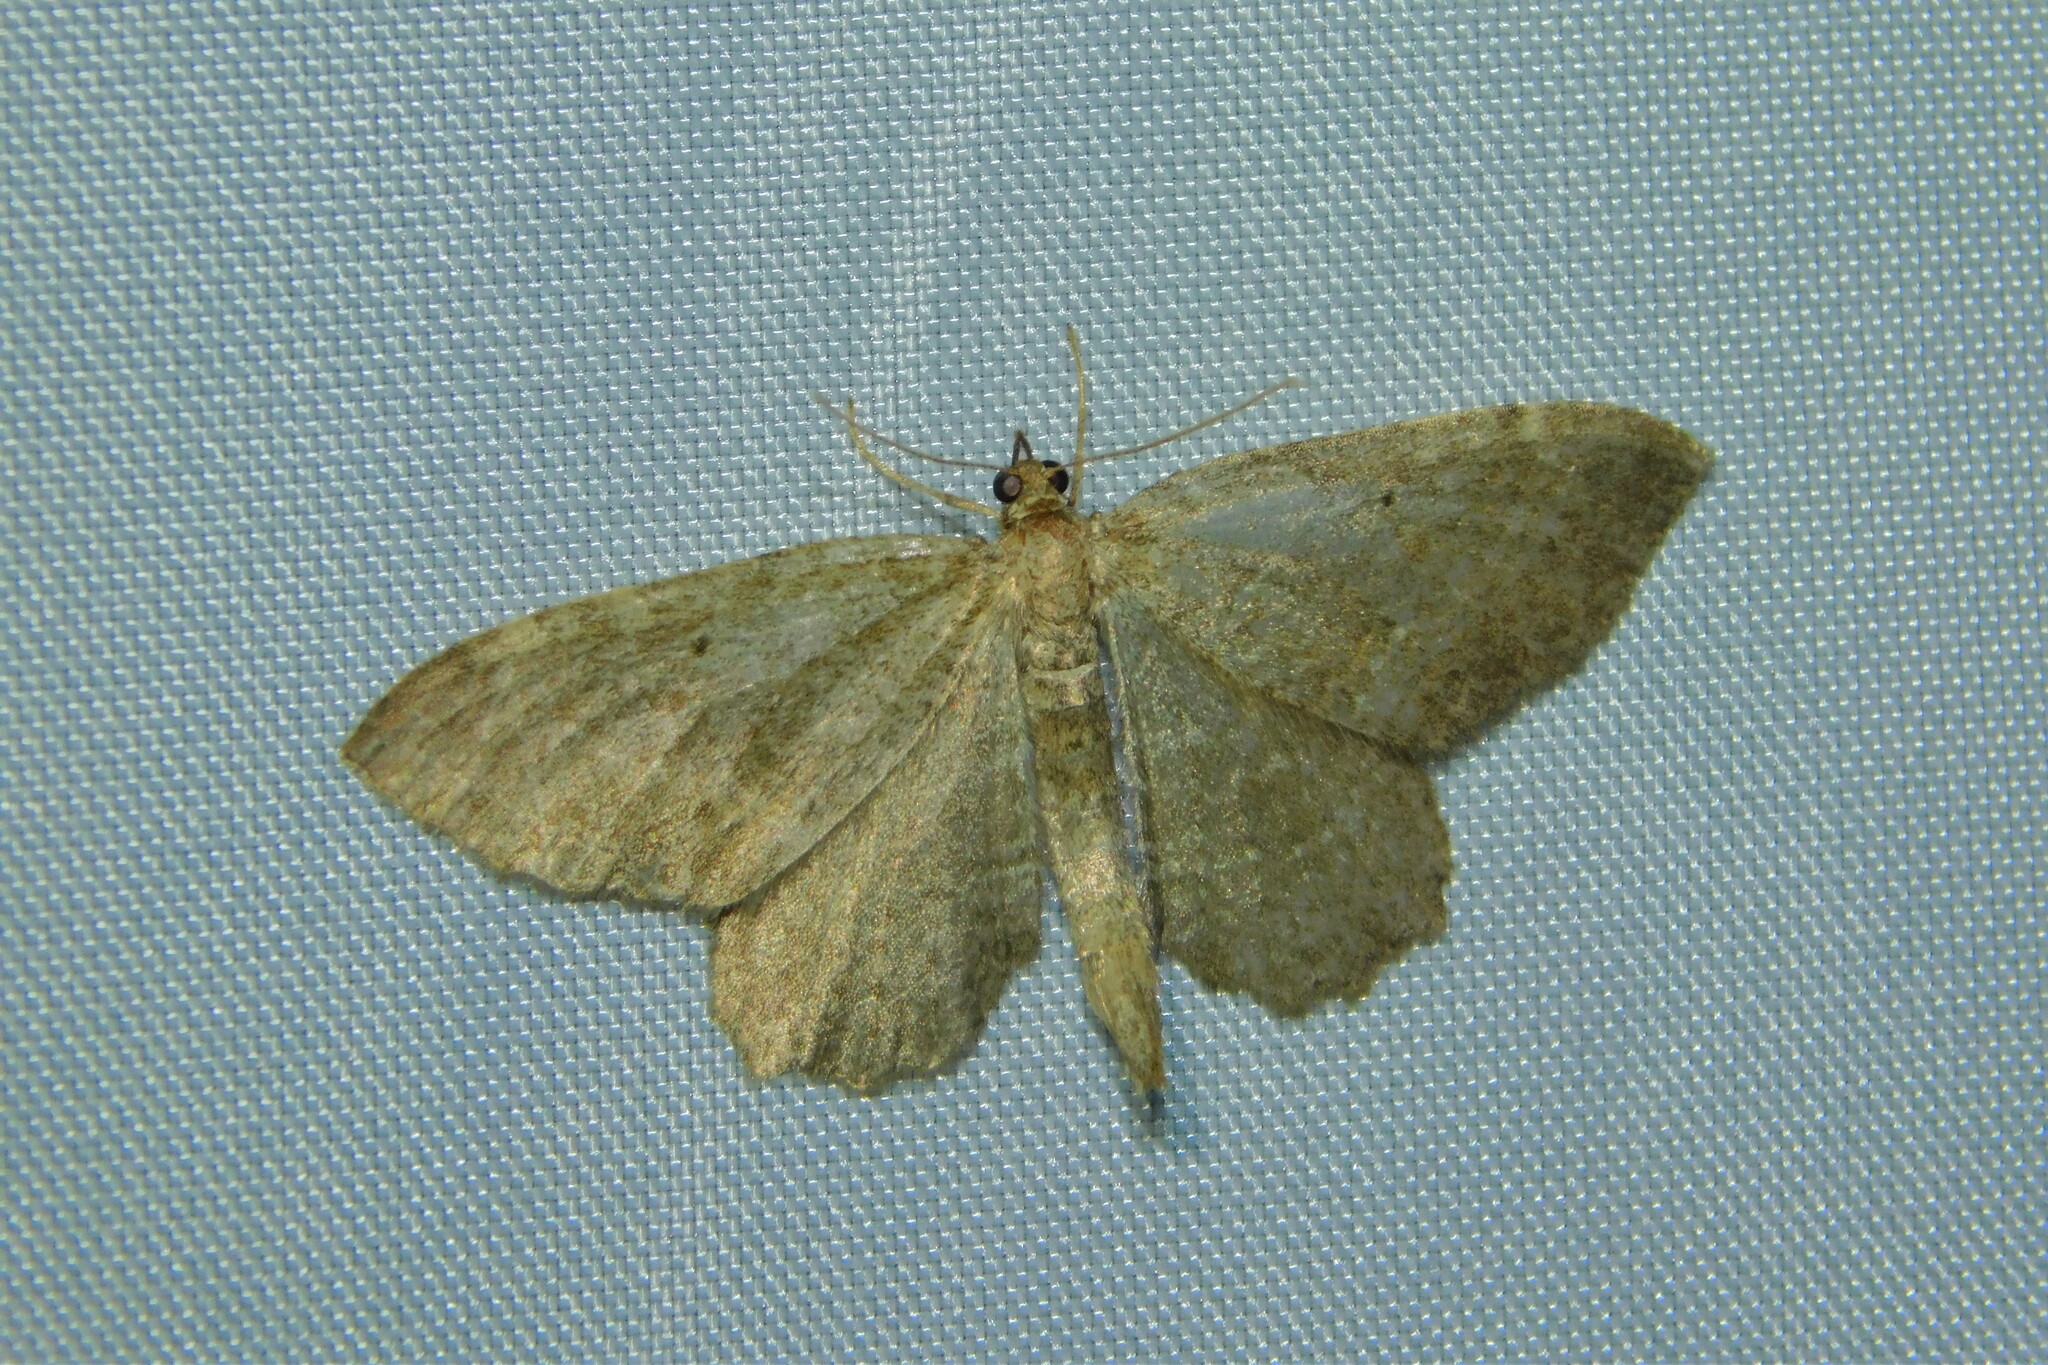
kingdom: Animalia
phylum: Arthropoda
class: Insecta
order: Lepidoptera
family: Geometridae
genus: Philereme
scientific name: Philereme vetulata
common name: Brown scallop
